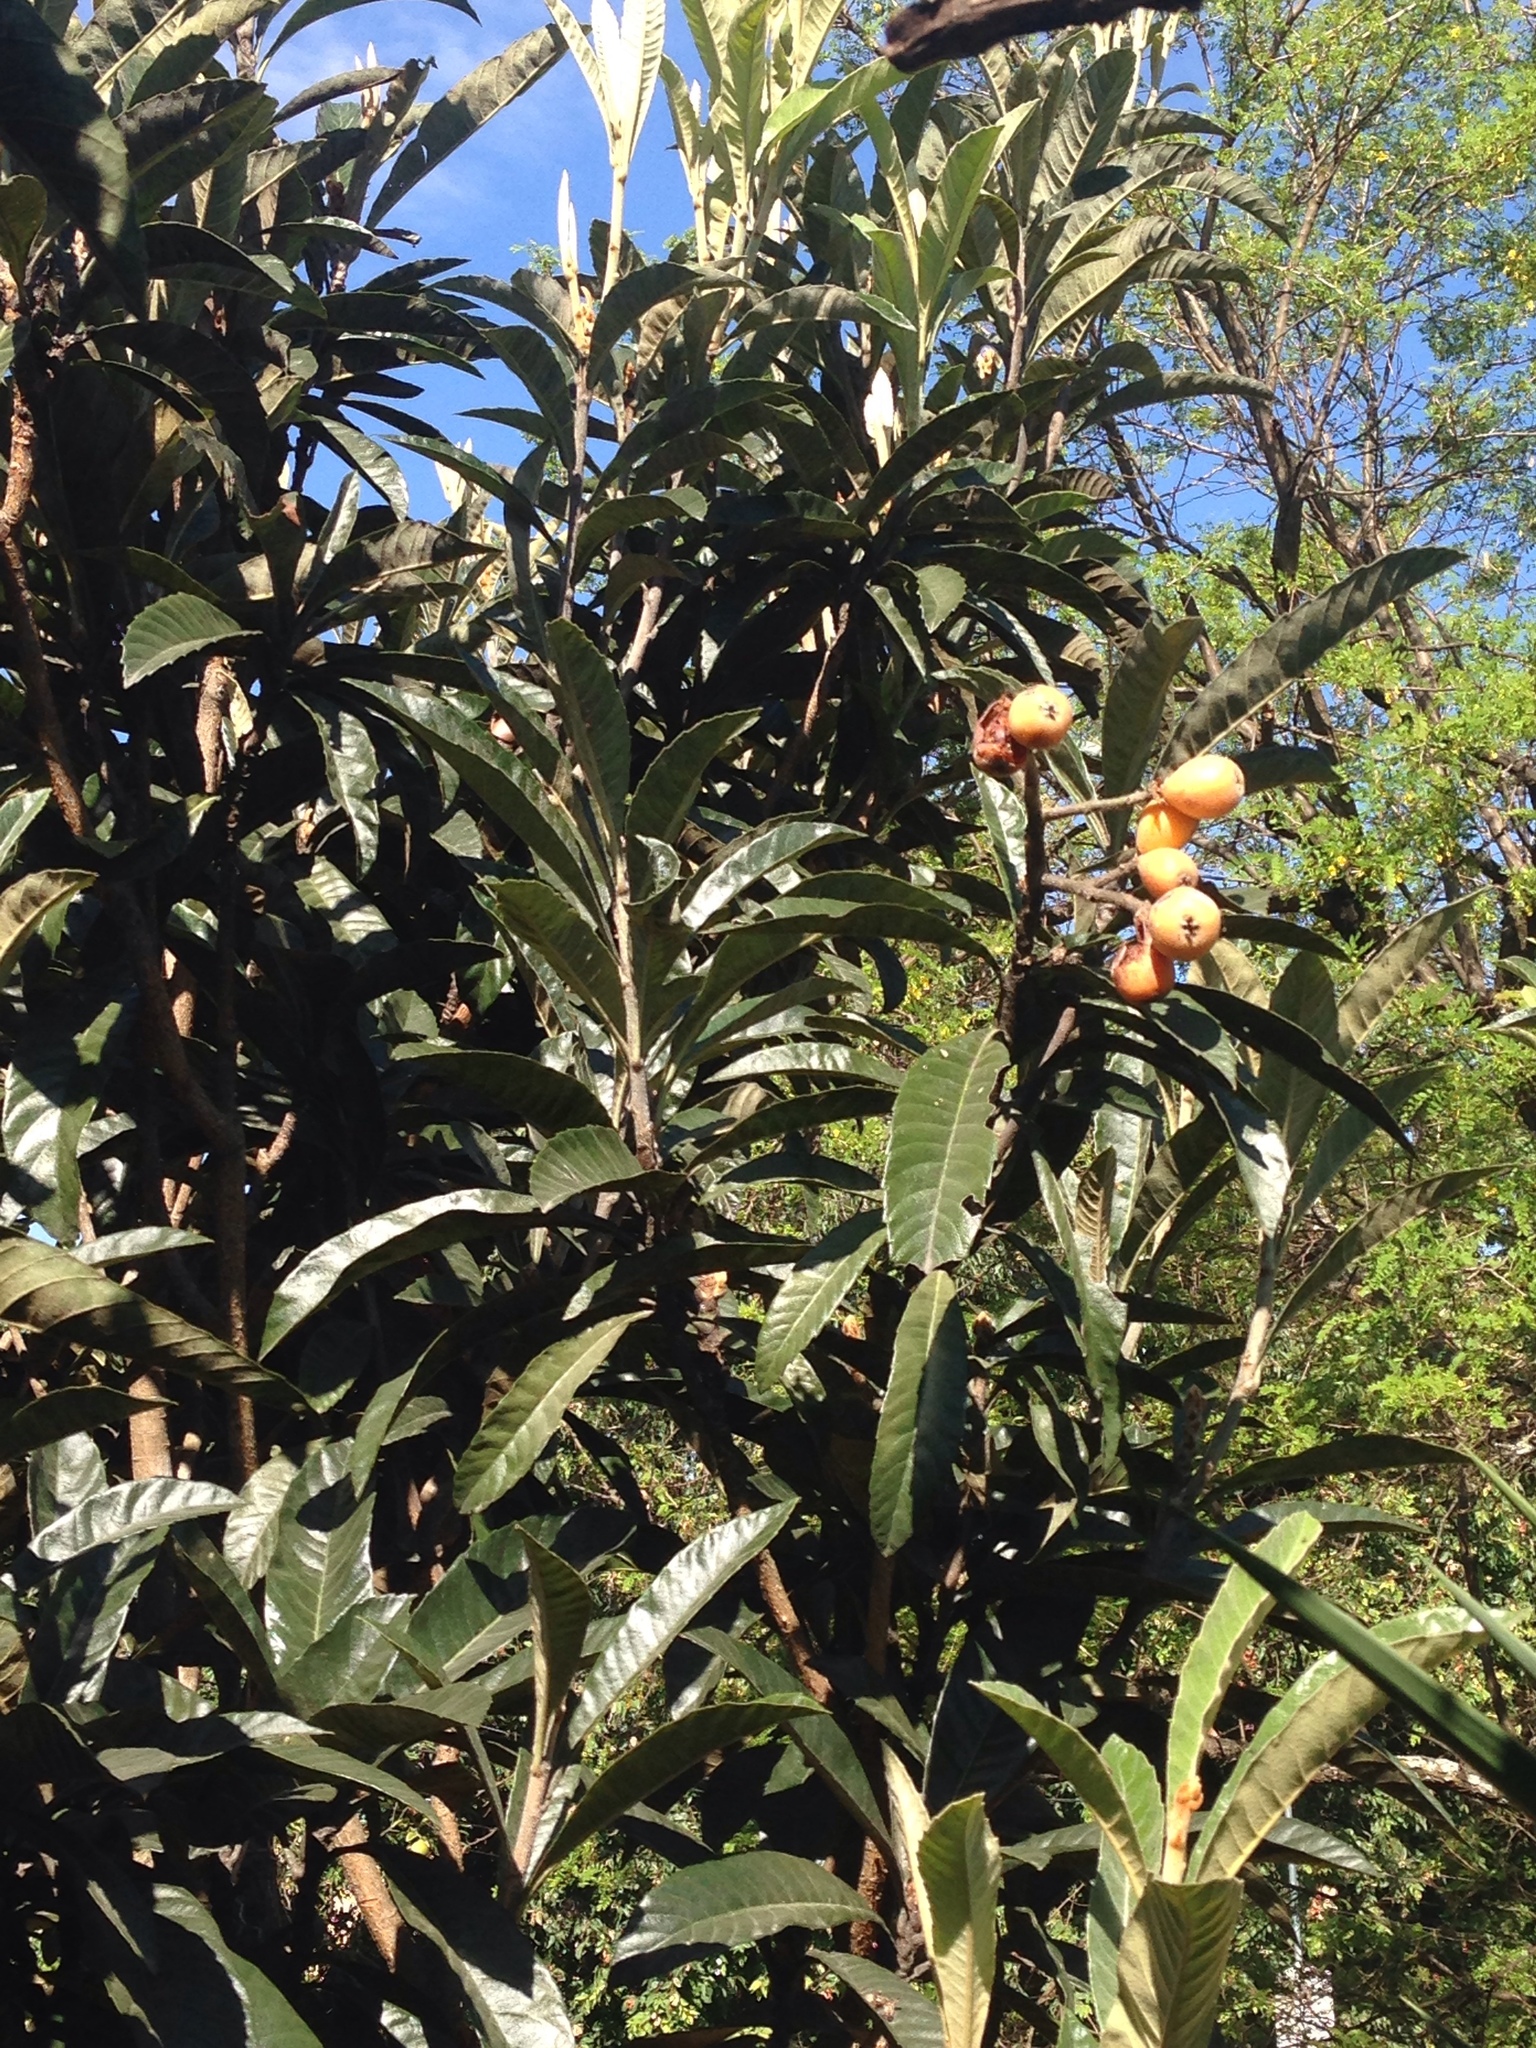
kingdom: Plantae
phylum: Tracheophyta
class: Magnoliopsida
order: Rosales
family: Rosaceae
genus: Rhaphiolepis
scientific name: Rhaphiolepis bibas
